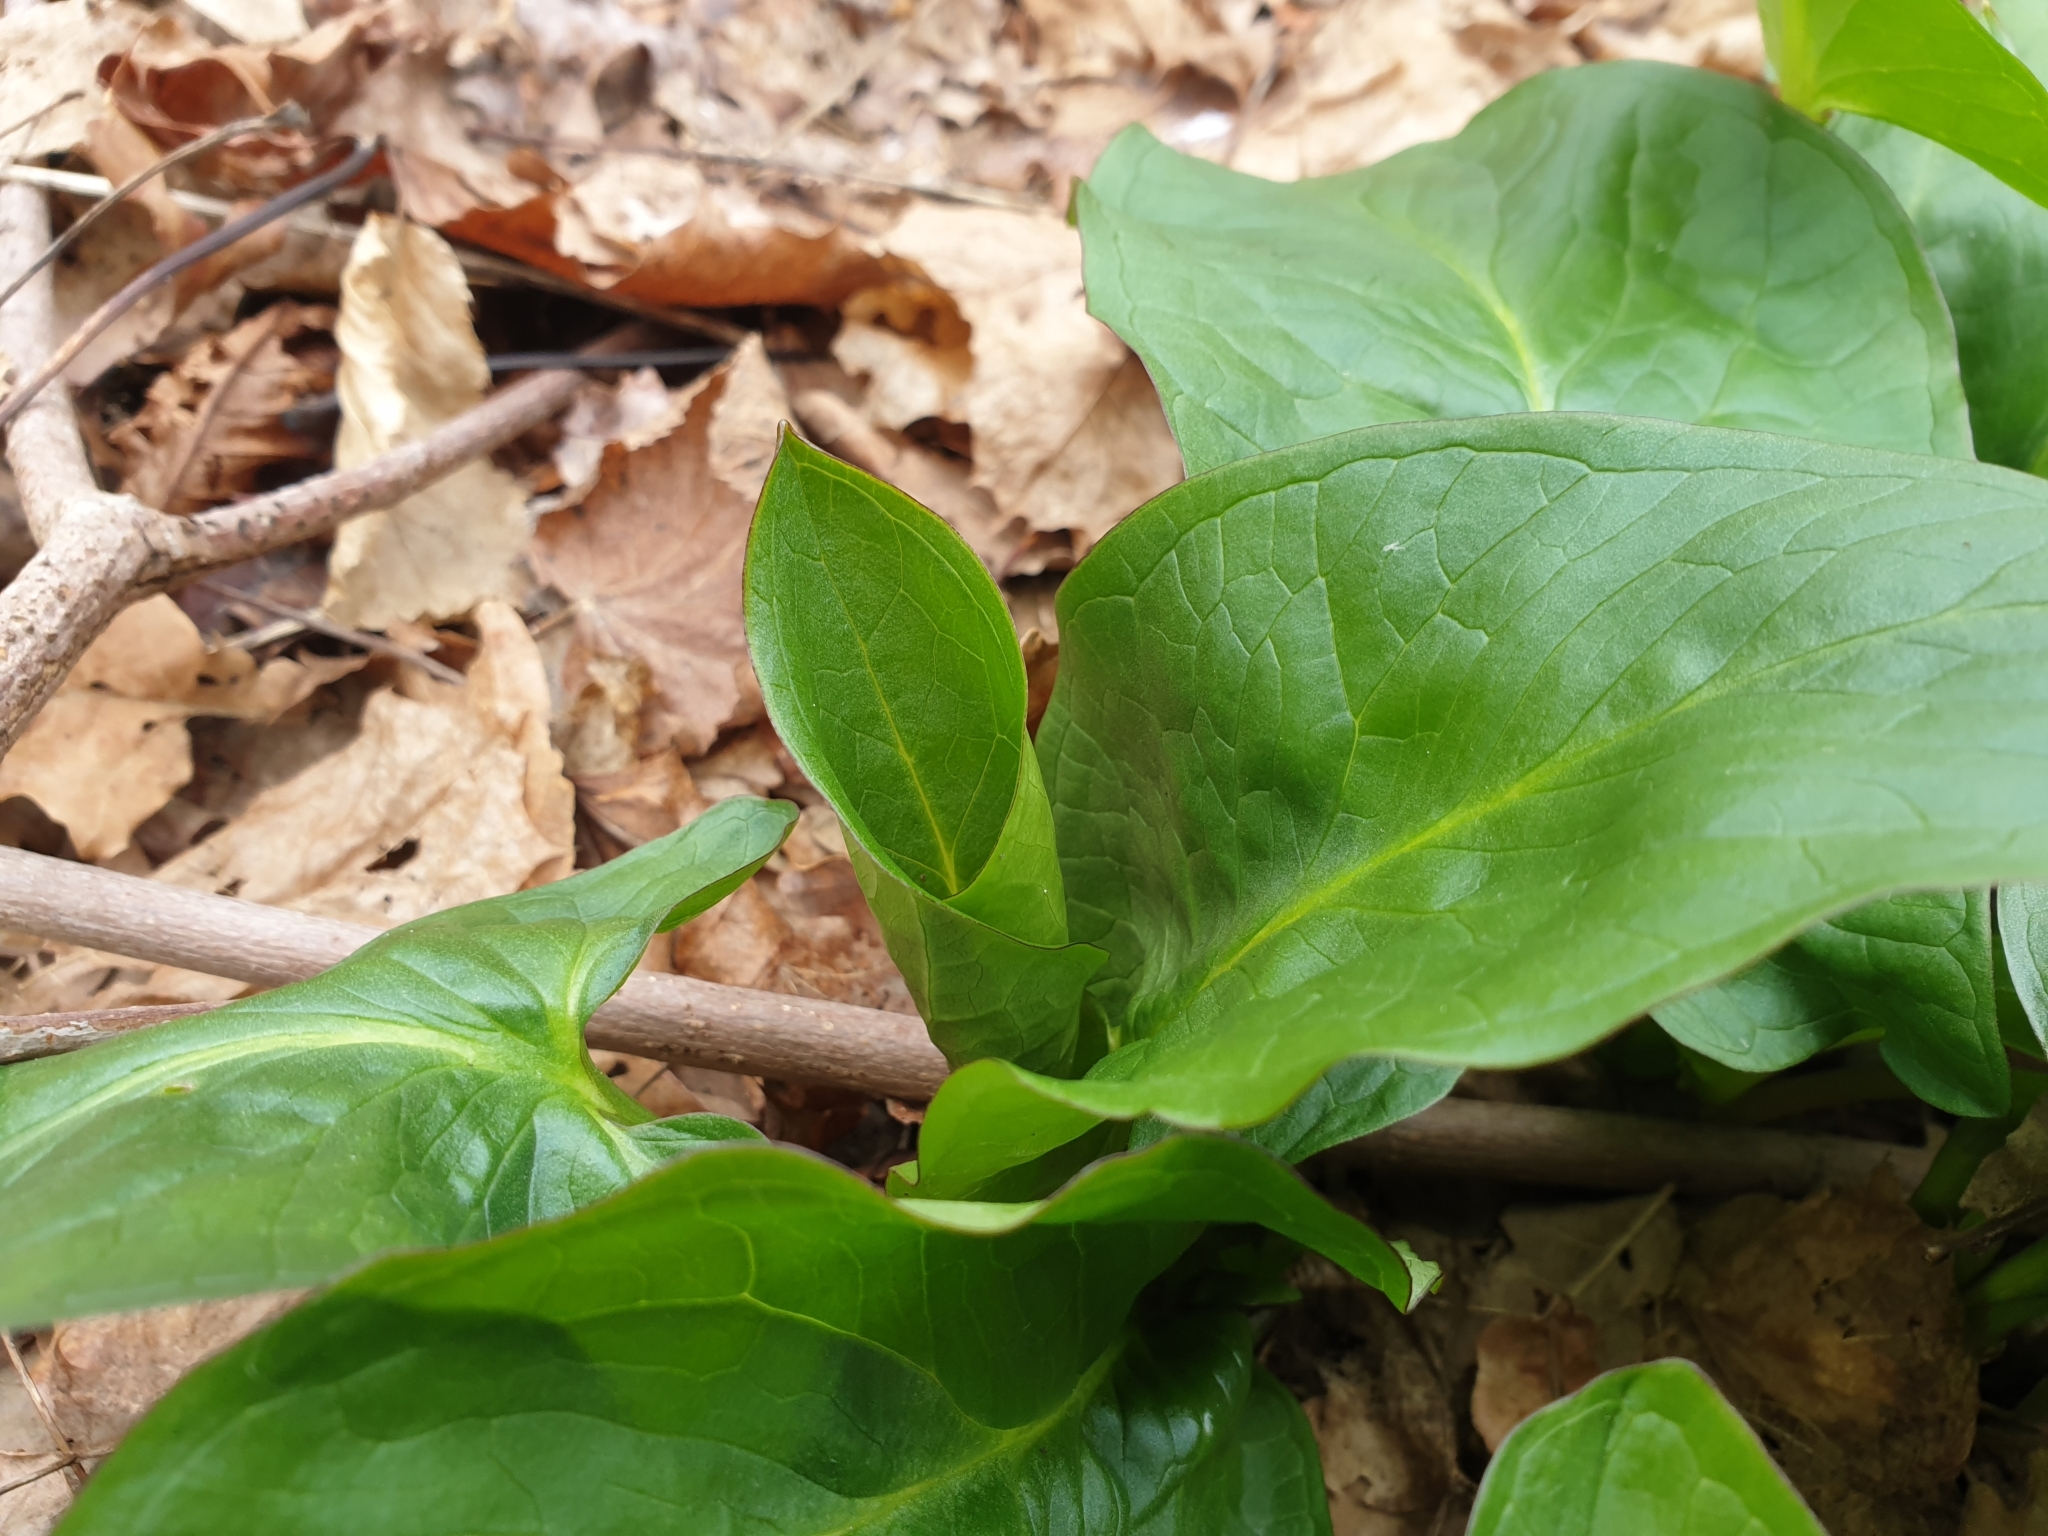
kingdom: Plantae
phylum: Tracheophyta
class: Liliopsida
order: Alismatales
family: Araceae
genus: Arum
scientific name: Arum maculatum
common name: Lords-and-ladies
